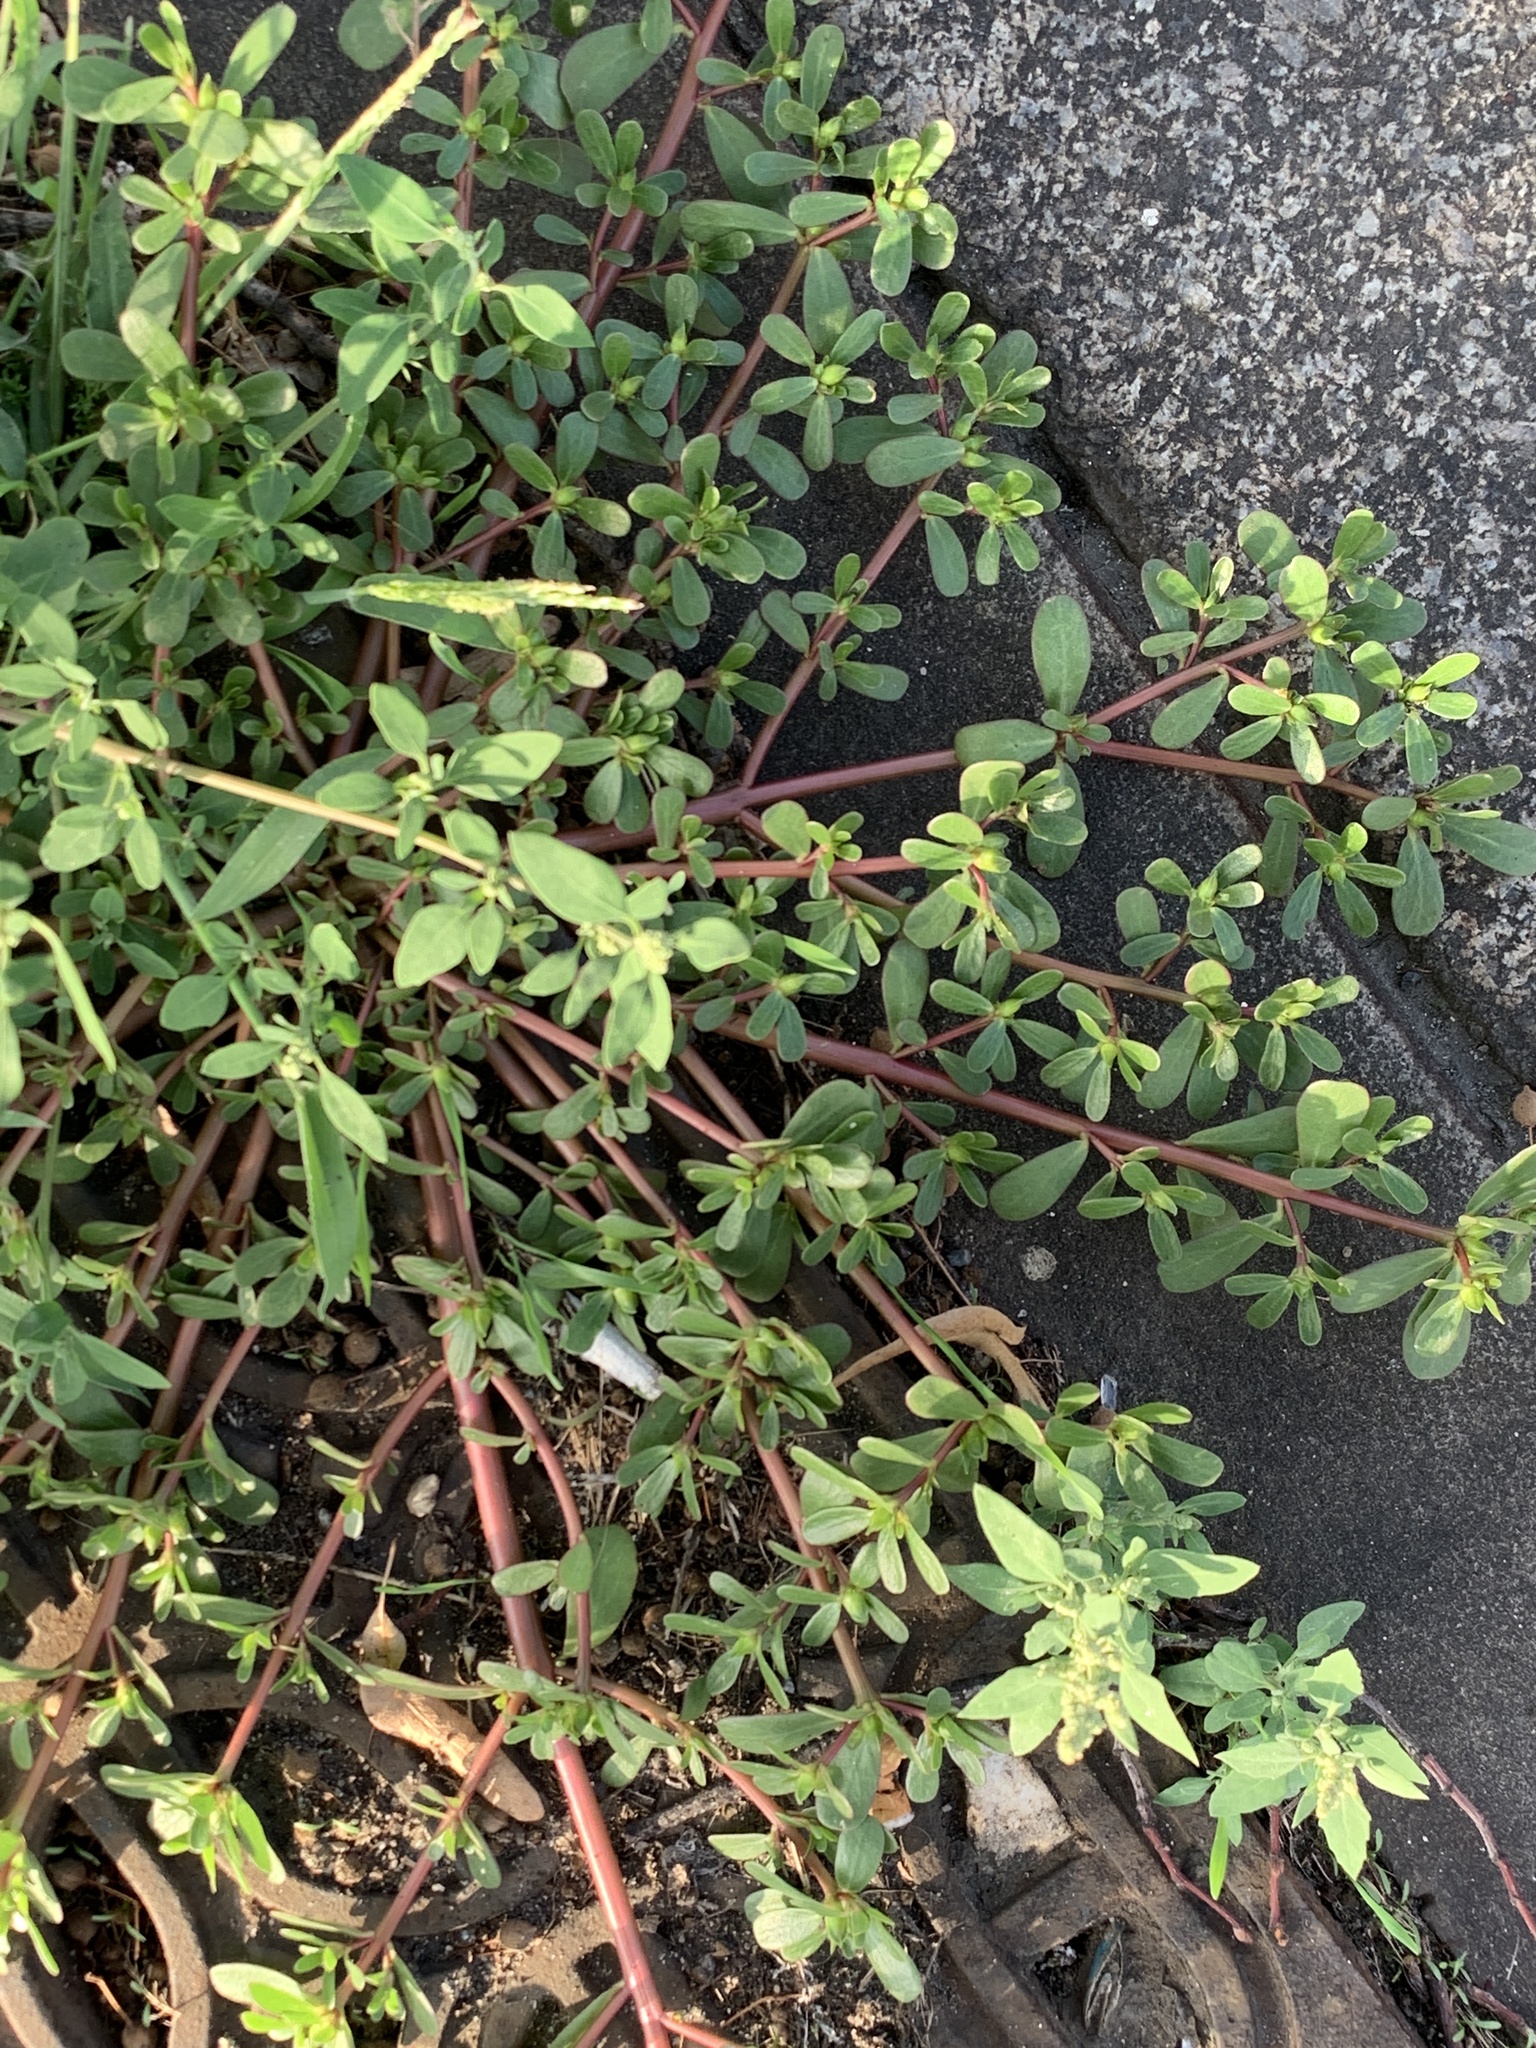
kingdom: Plantae
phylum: Tracheophyta
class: Magnoliopsida
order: Caryophyllales
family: Portulacaceae
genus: Portulaca
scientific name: Portulaca oleracea
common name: Common purslane
